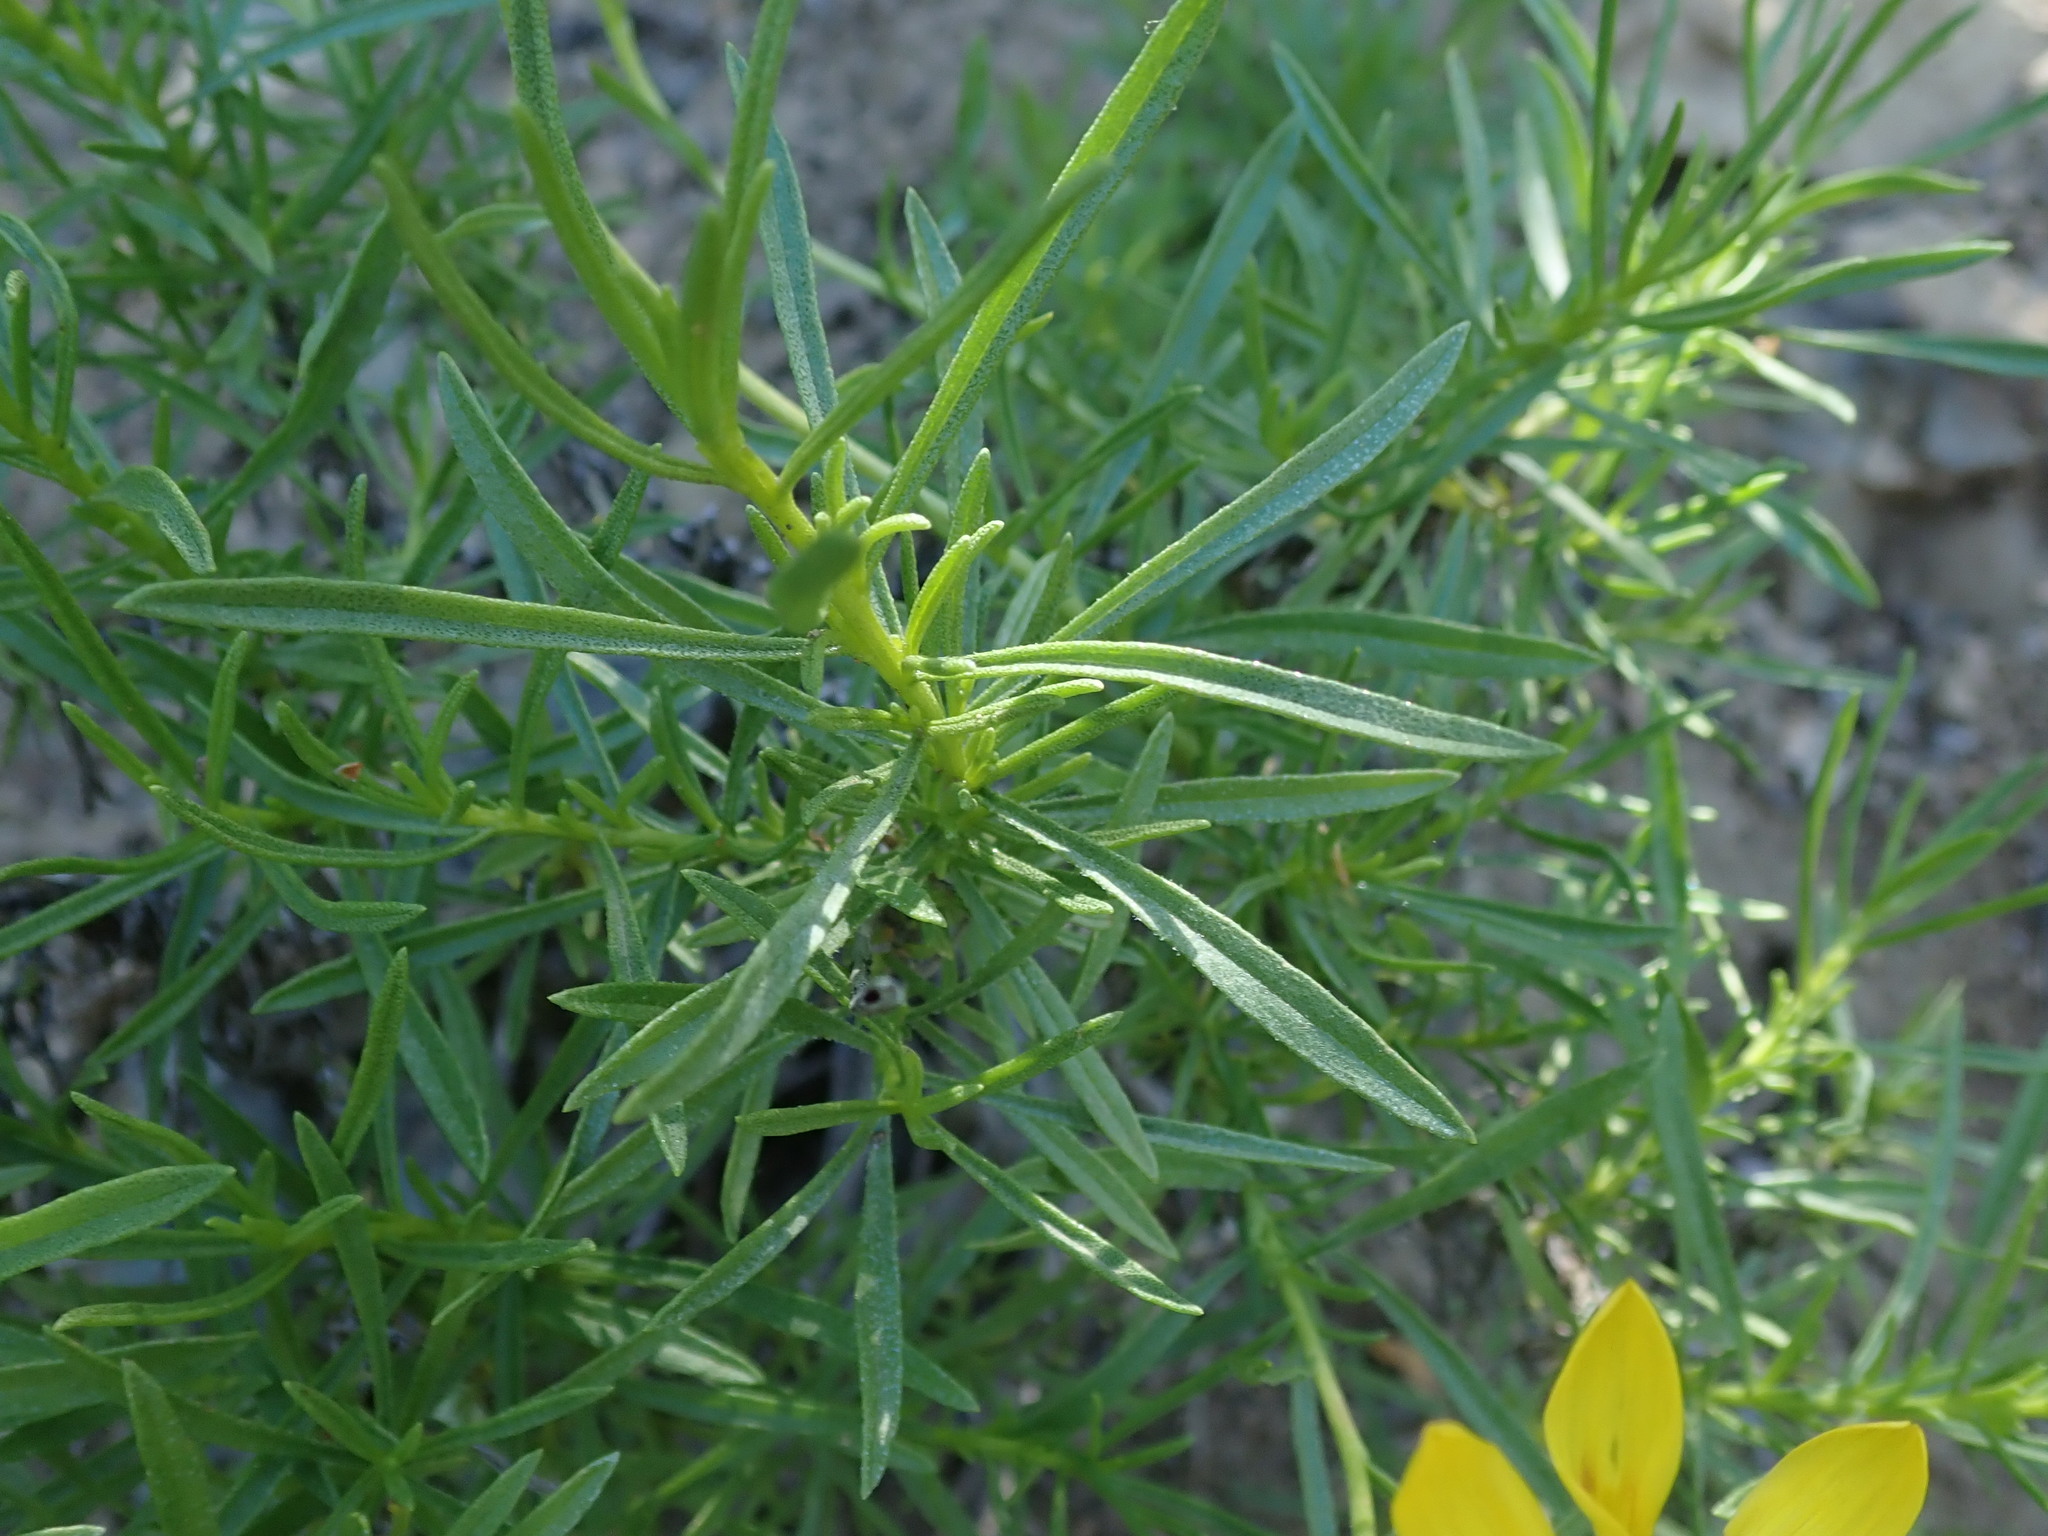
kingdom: Plantae
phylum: Tracheophyta
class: Magnoliopsida
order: Asterales
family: Asteraceae
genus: Ericameria
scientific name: Ericameria linearifolia
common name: Interior goldenbush
